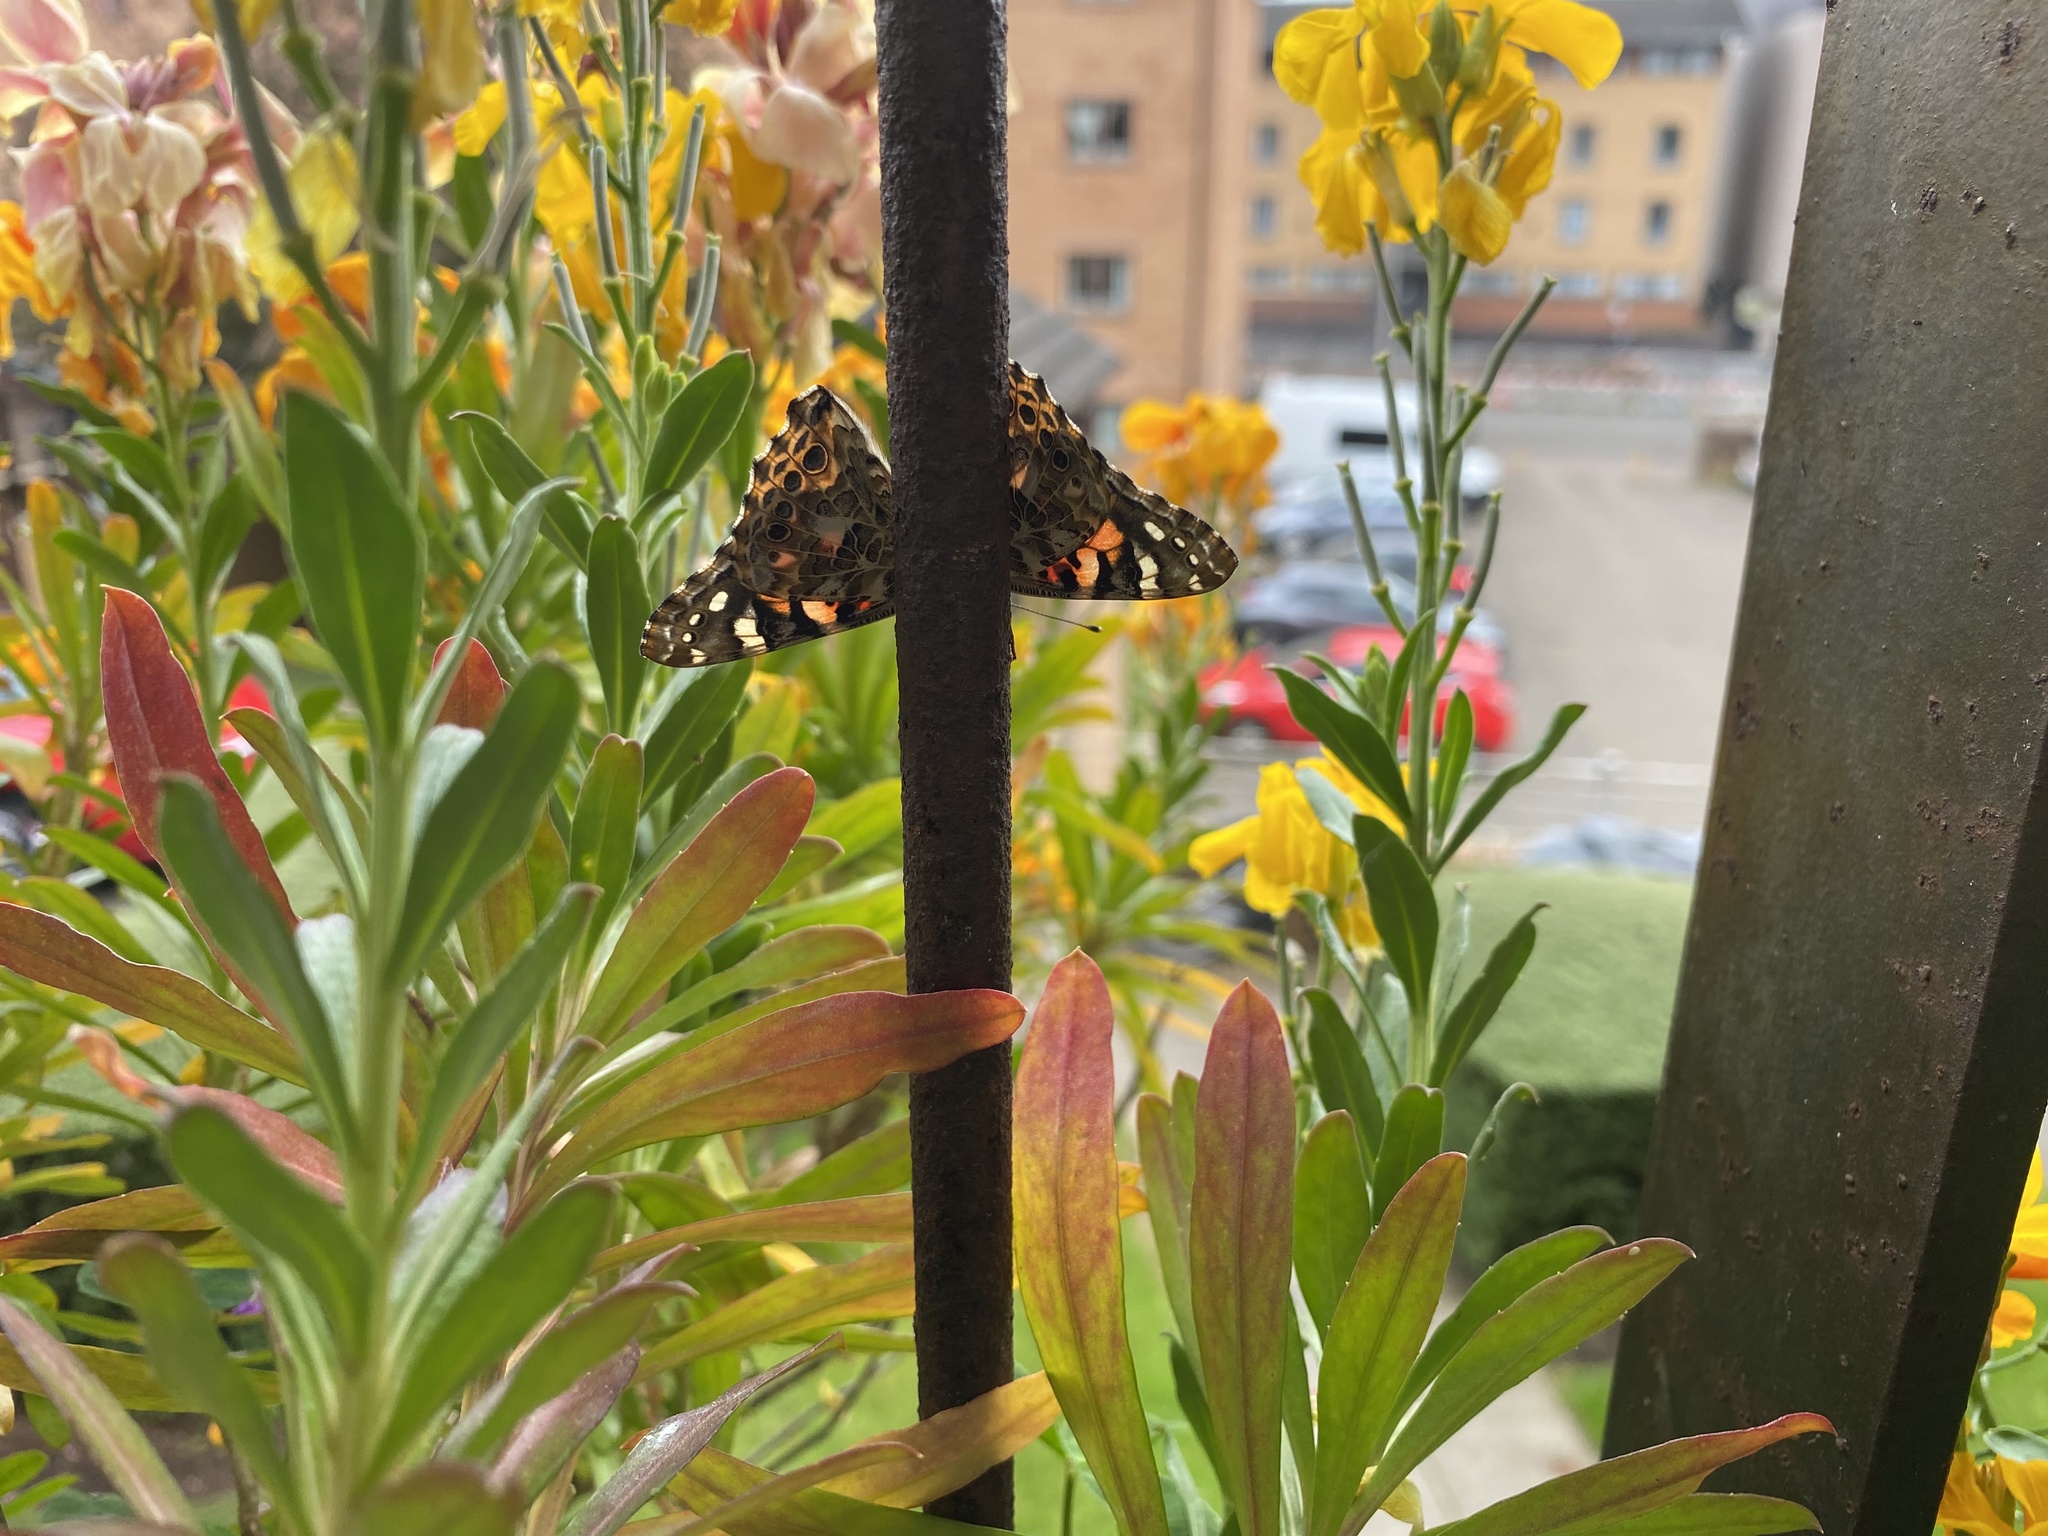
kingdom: Animalia
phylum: Arthropoda
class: Insecta
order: Lepidoptera
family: Nymphalidae
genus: Vanessa
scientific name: Vanessa cardui
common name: Painted lady
